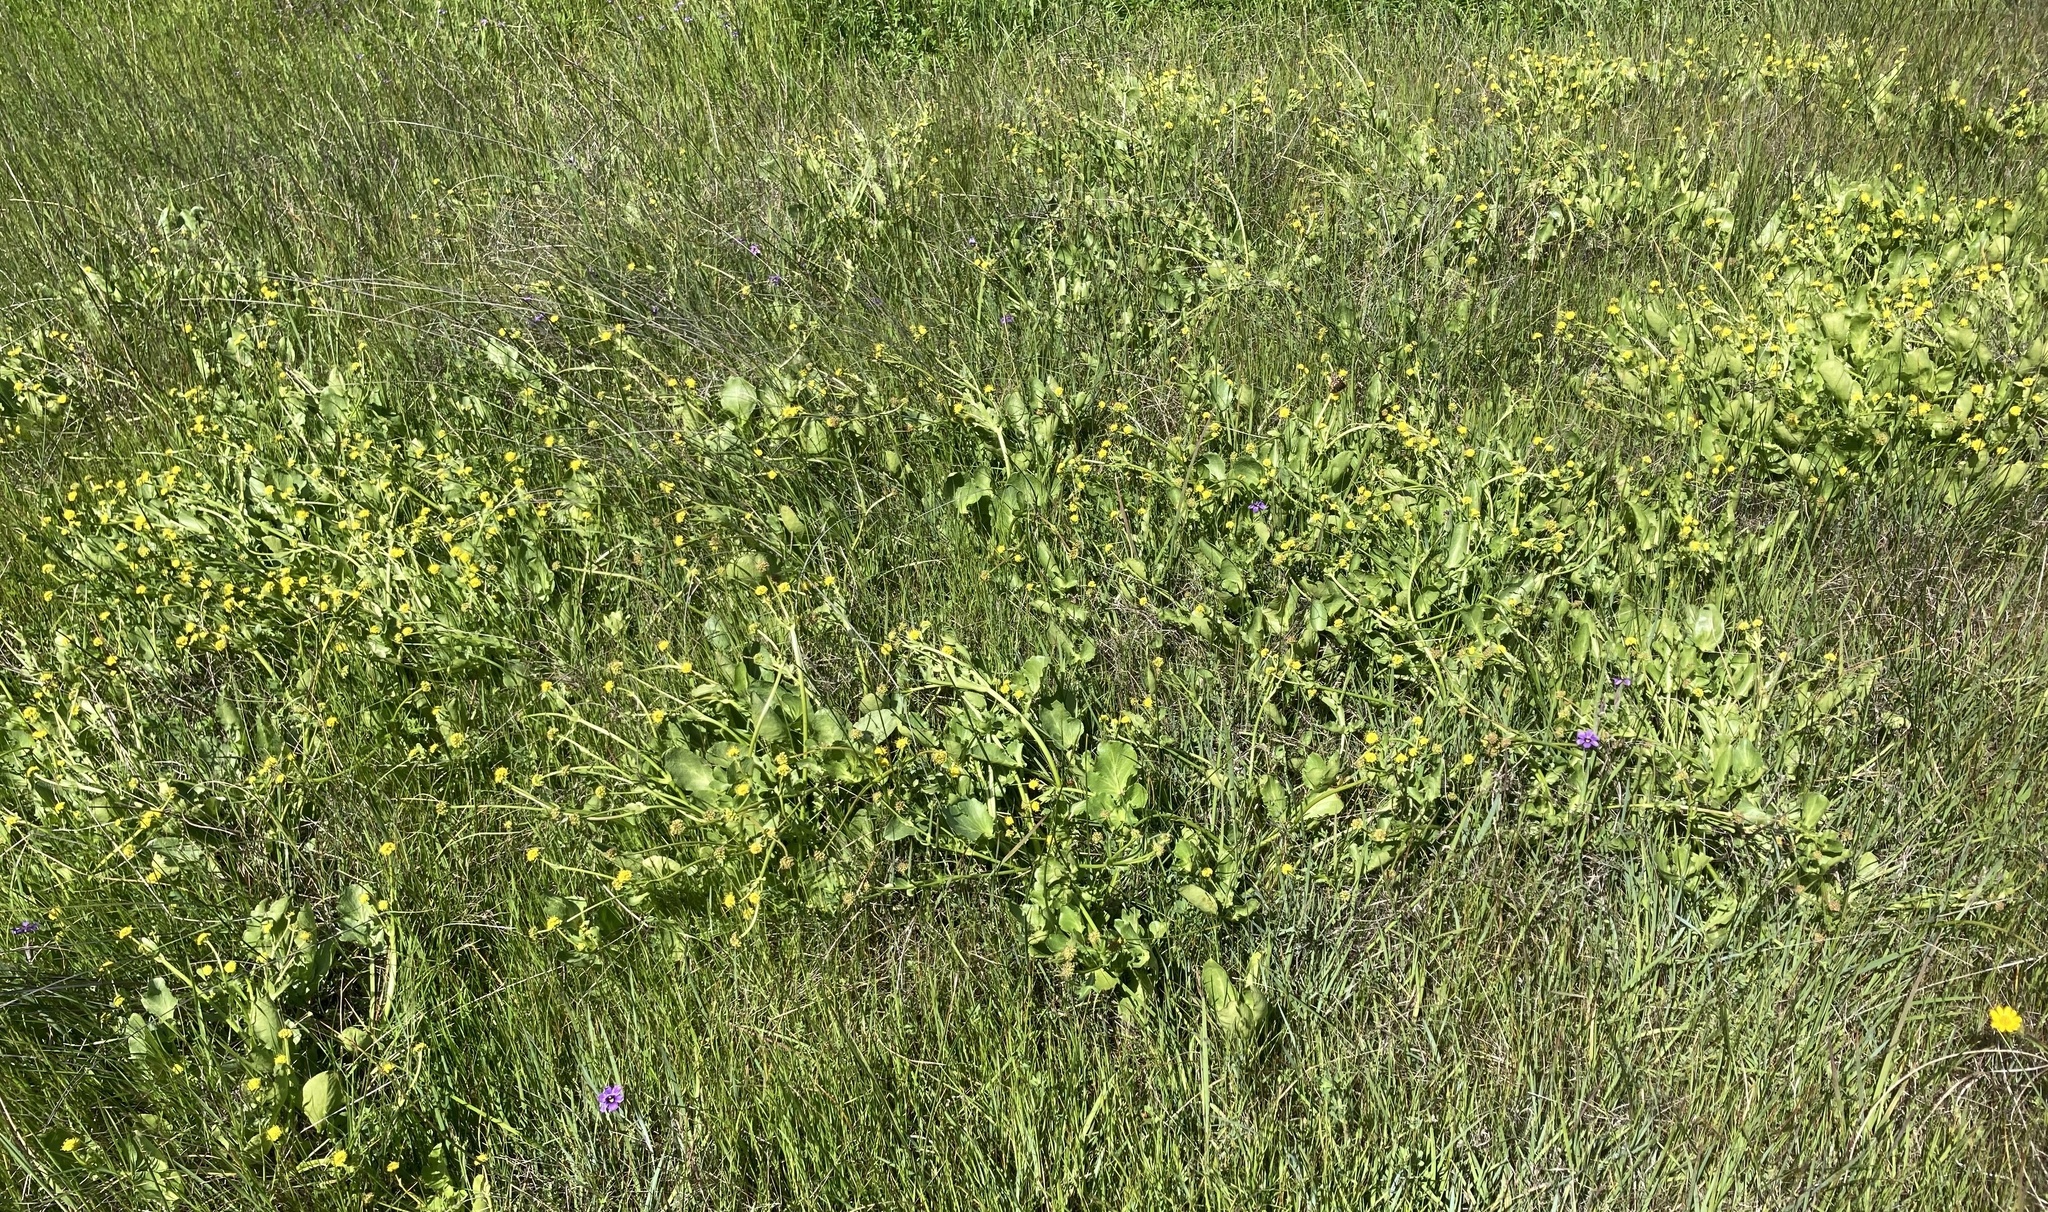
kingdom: Plantae
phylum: Tracheophyta
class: Magnoliopsida
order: Apiales
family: Apiaceae
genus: Sanicula
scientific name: Sanicula maritima
